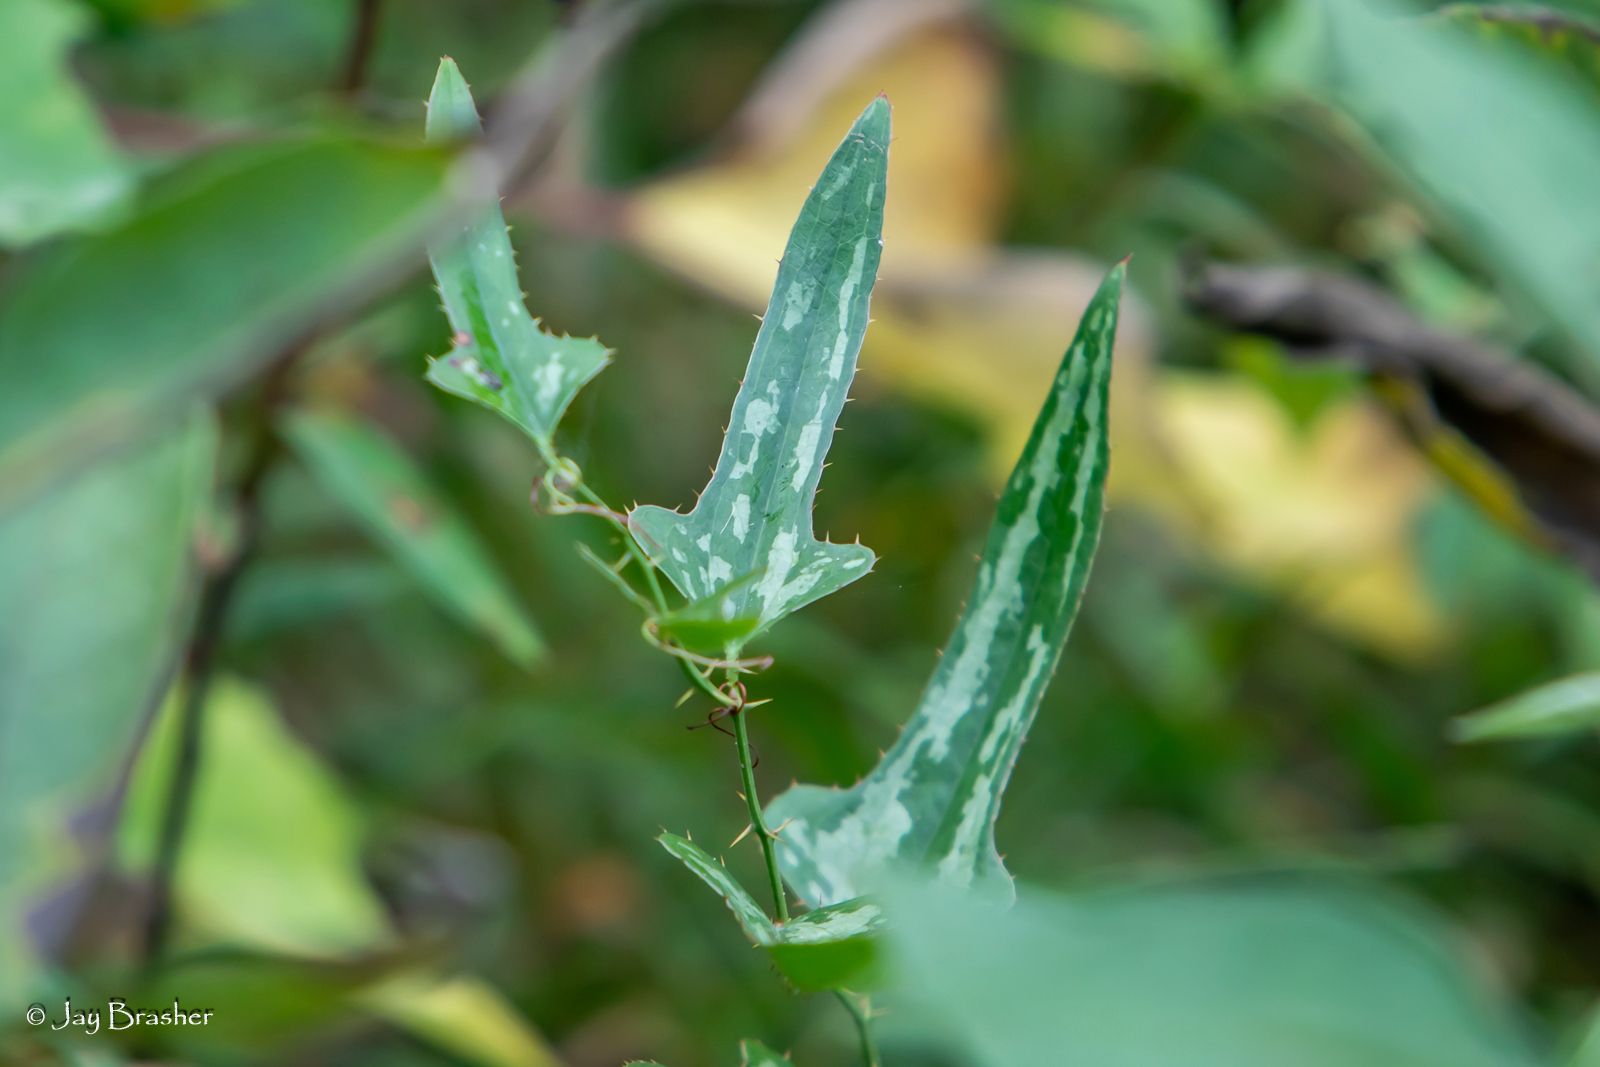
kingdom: Plantae
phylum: Tracheophyta
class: Liliopsida
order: Liliales
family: Smilacaceae
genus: Smilax
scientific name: Smilax bona-nox
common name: Catbrier
